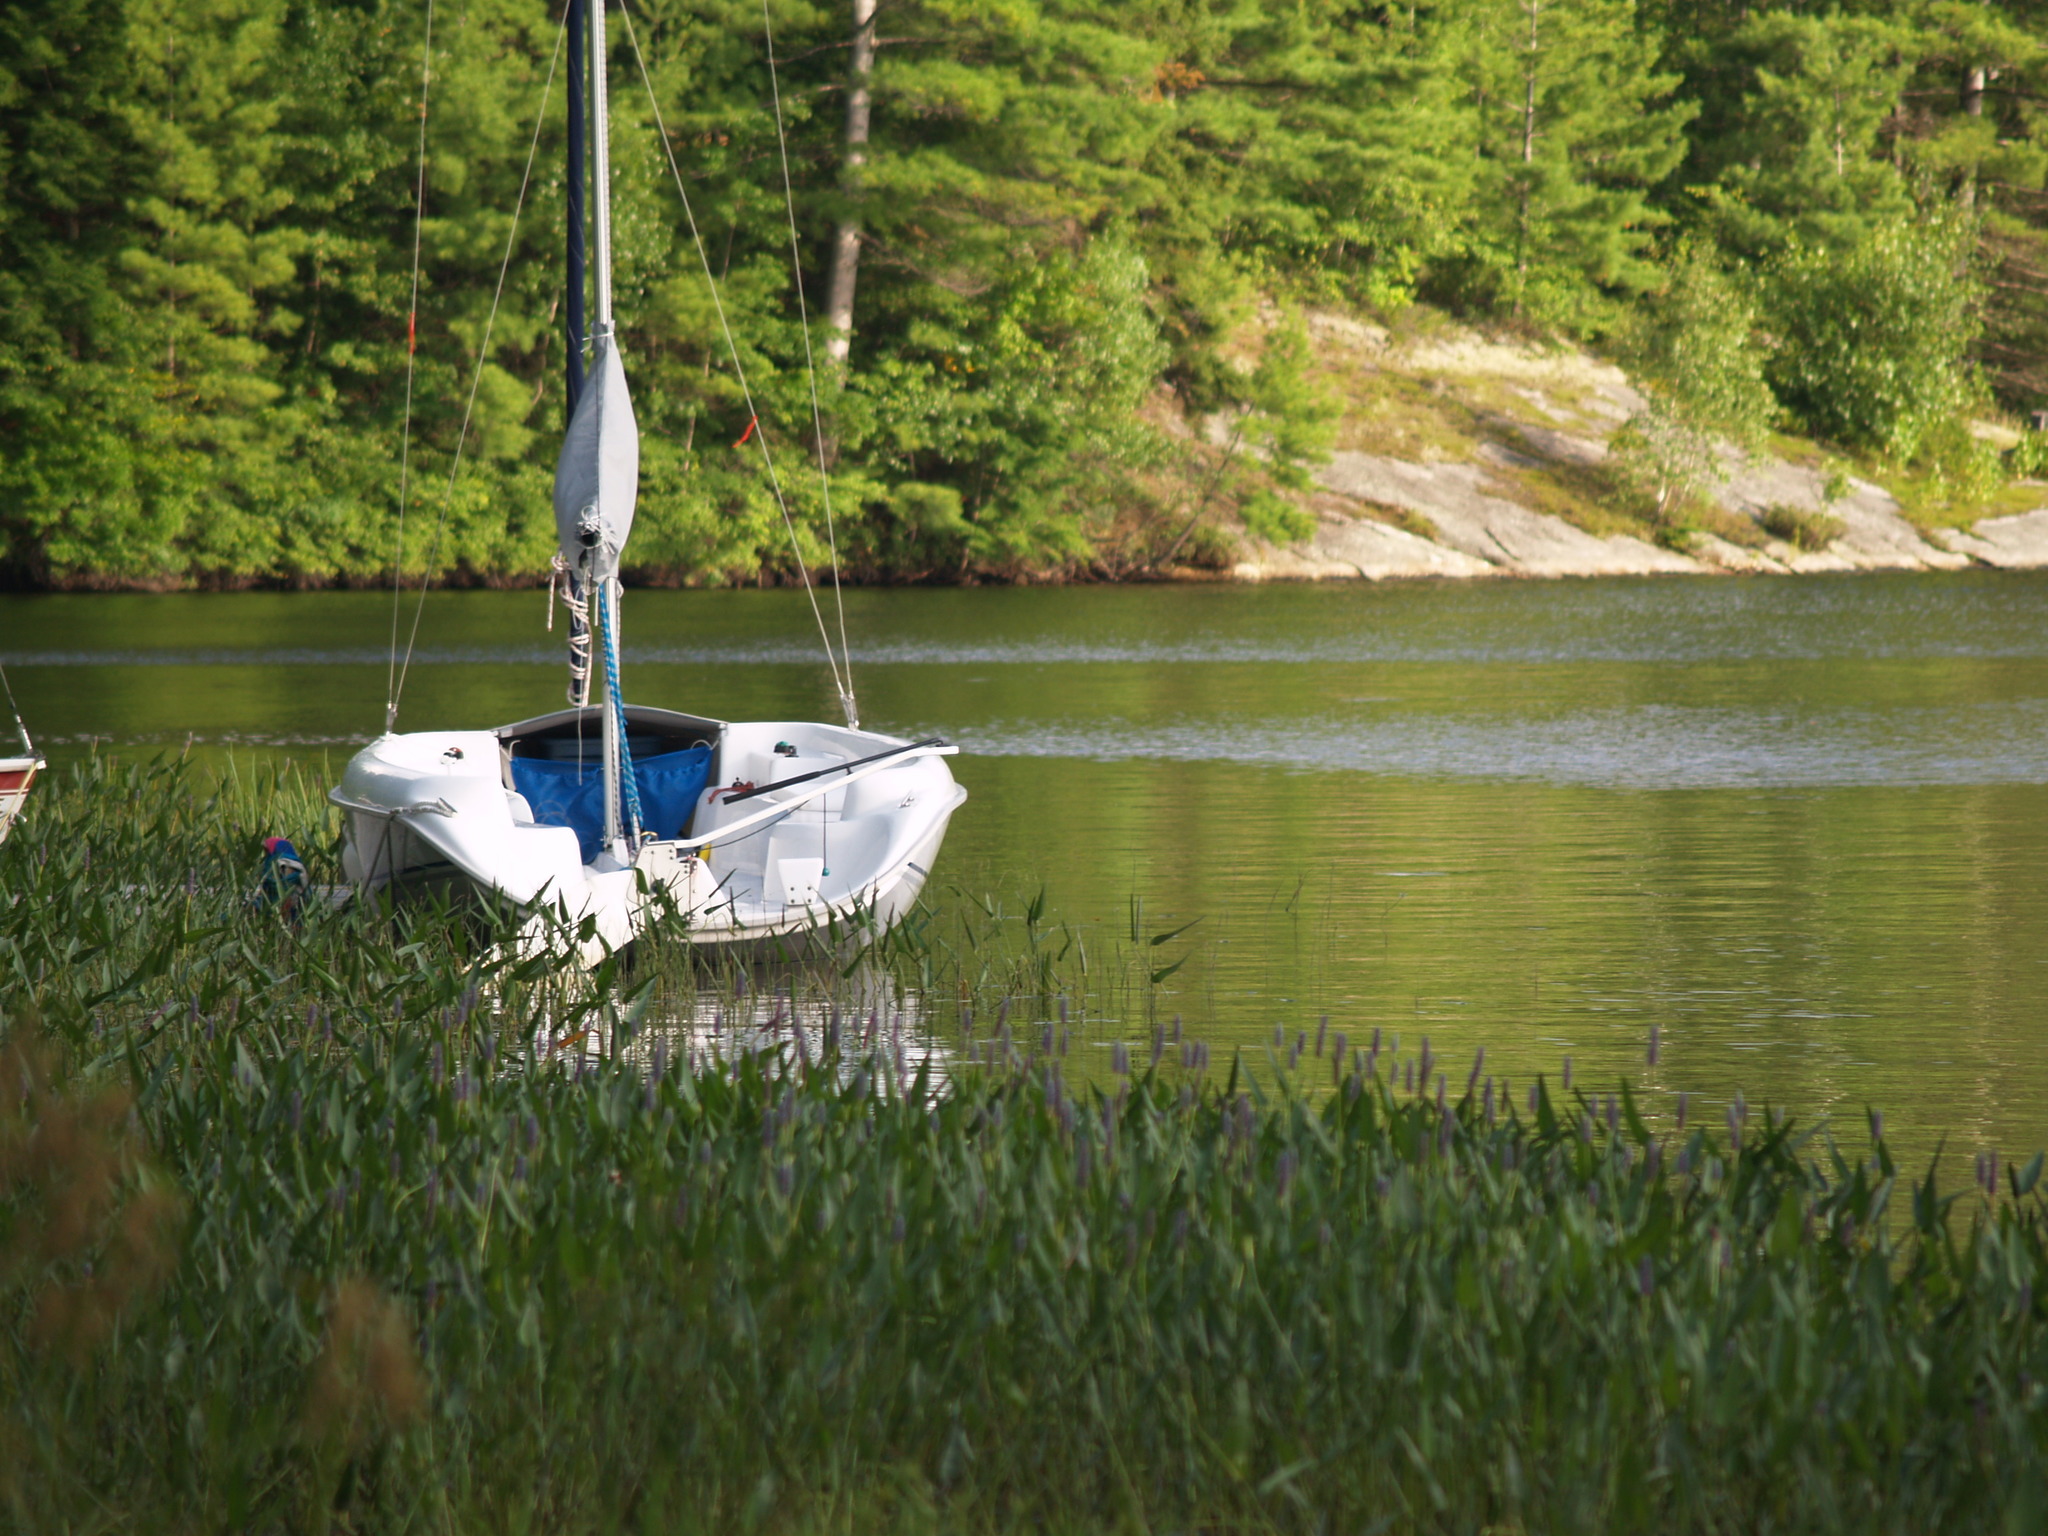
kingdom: Plantae
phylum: Tracheophyta
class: Liliopsida
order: Commelinales
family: Pontederiaceae
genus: Pontederia
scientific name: Pontederia cordata
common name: Pickerelweed
